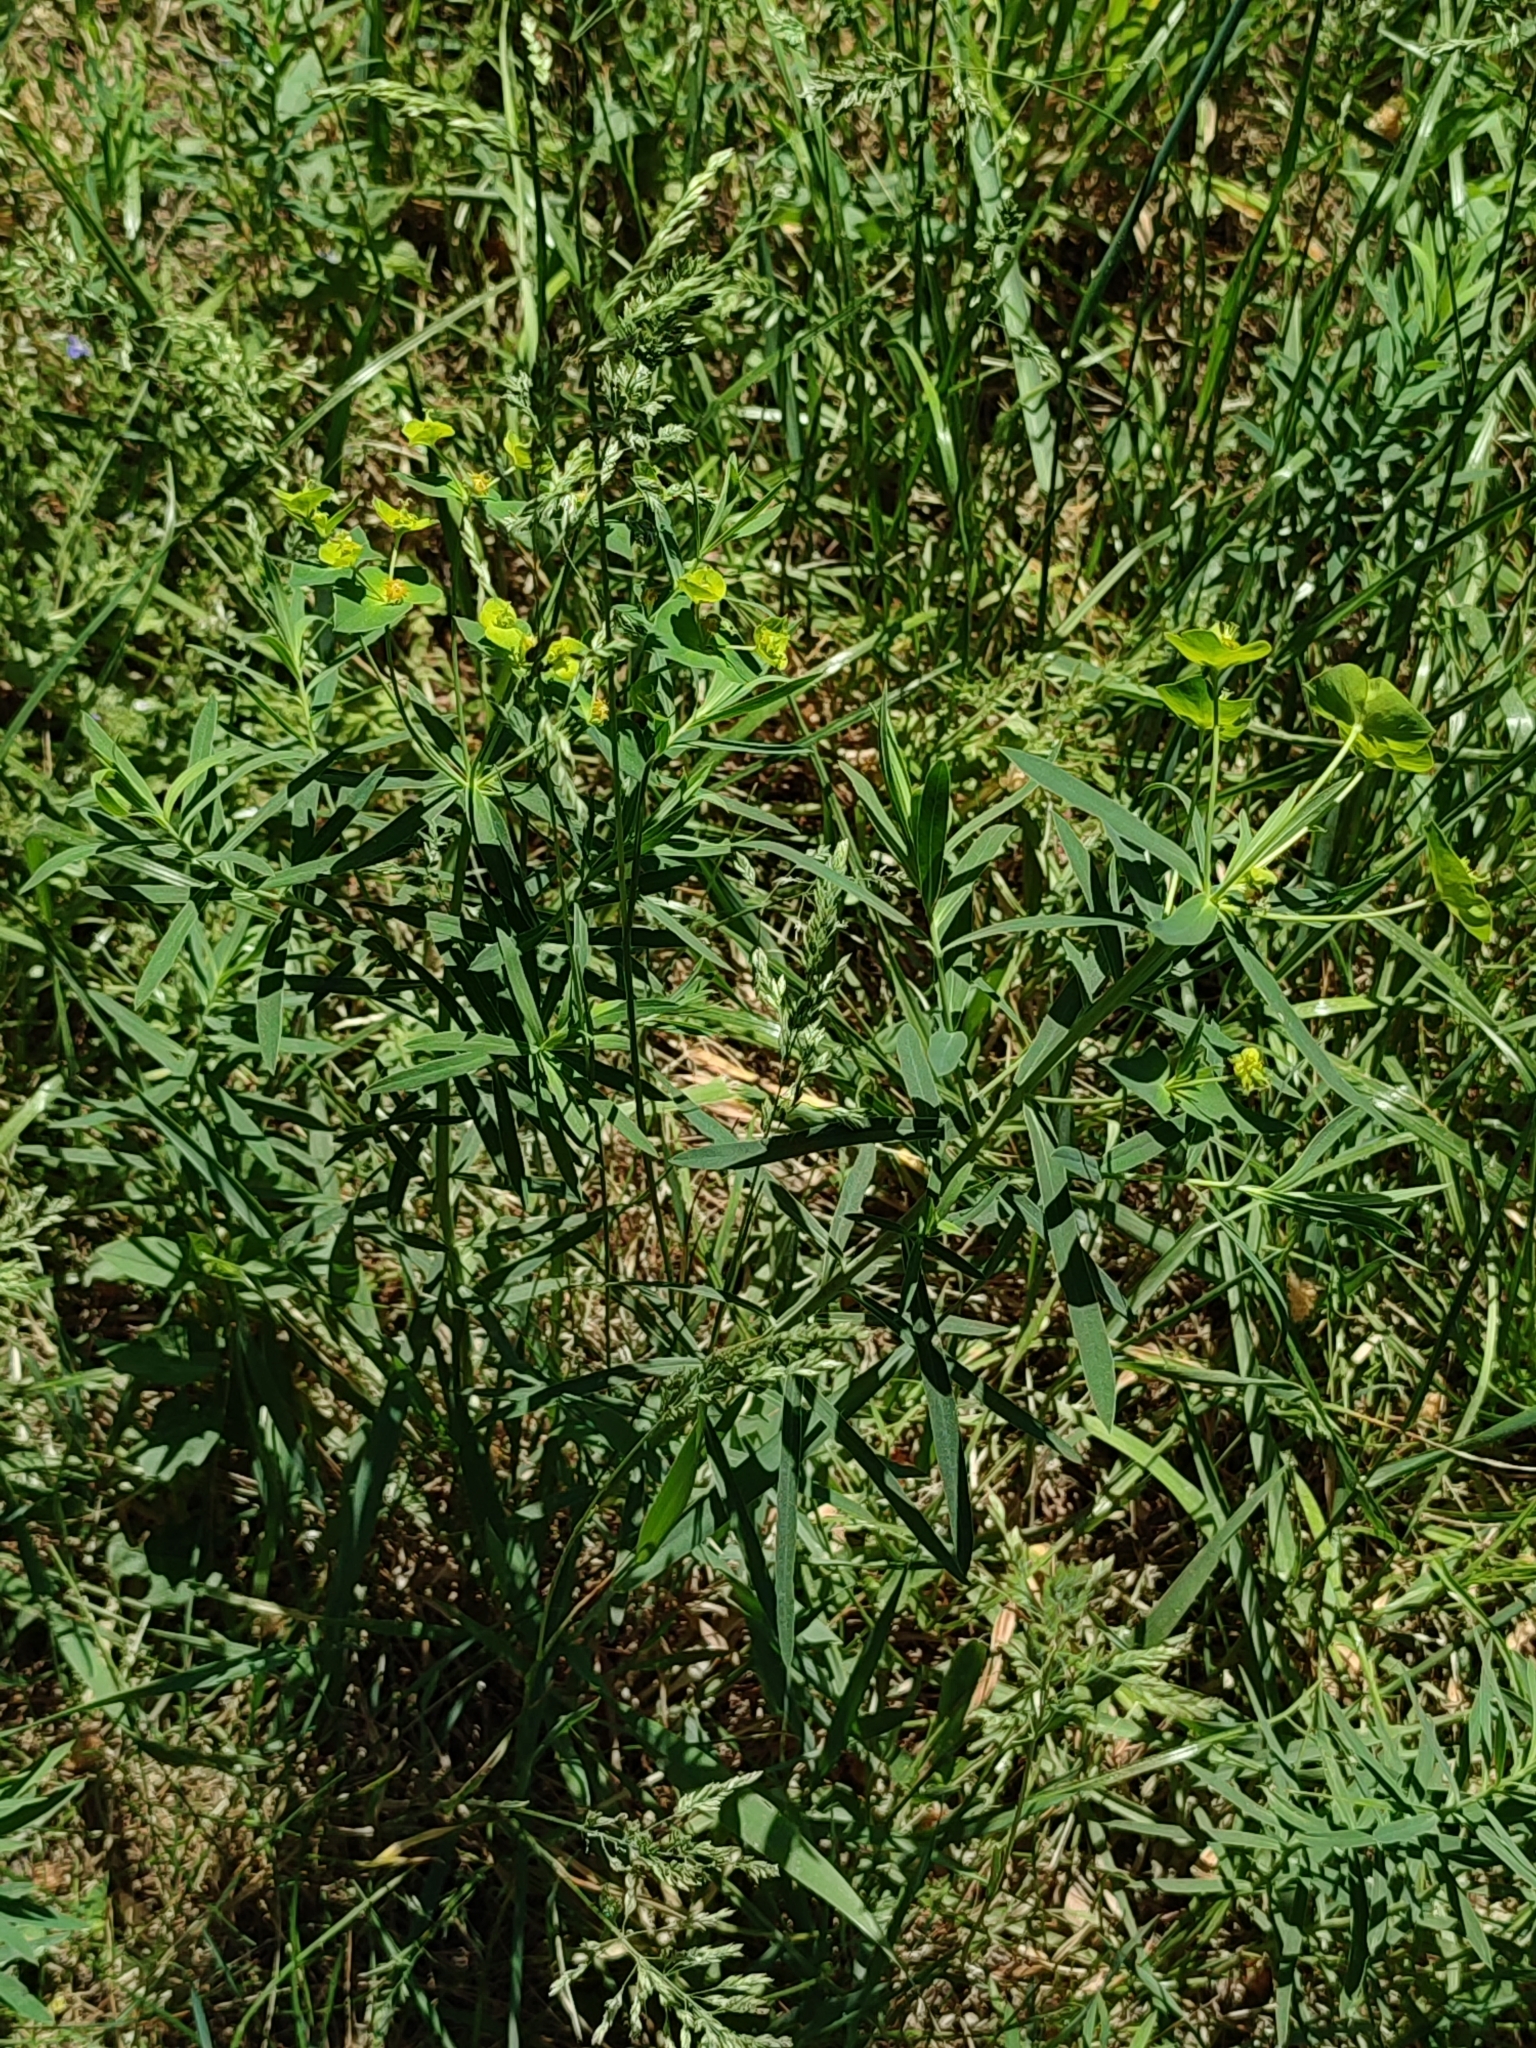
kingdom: Plantae
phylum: Tracheophyta
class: Magnoliopsida
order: Malpighiales
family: Euphorbiaceae
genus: Euphorbia
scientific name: Euphorbia virgata
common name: Leafy spurge
